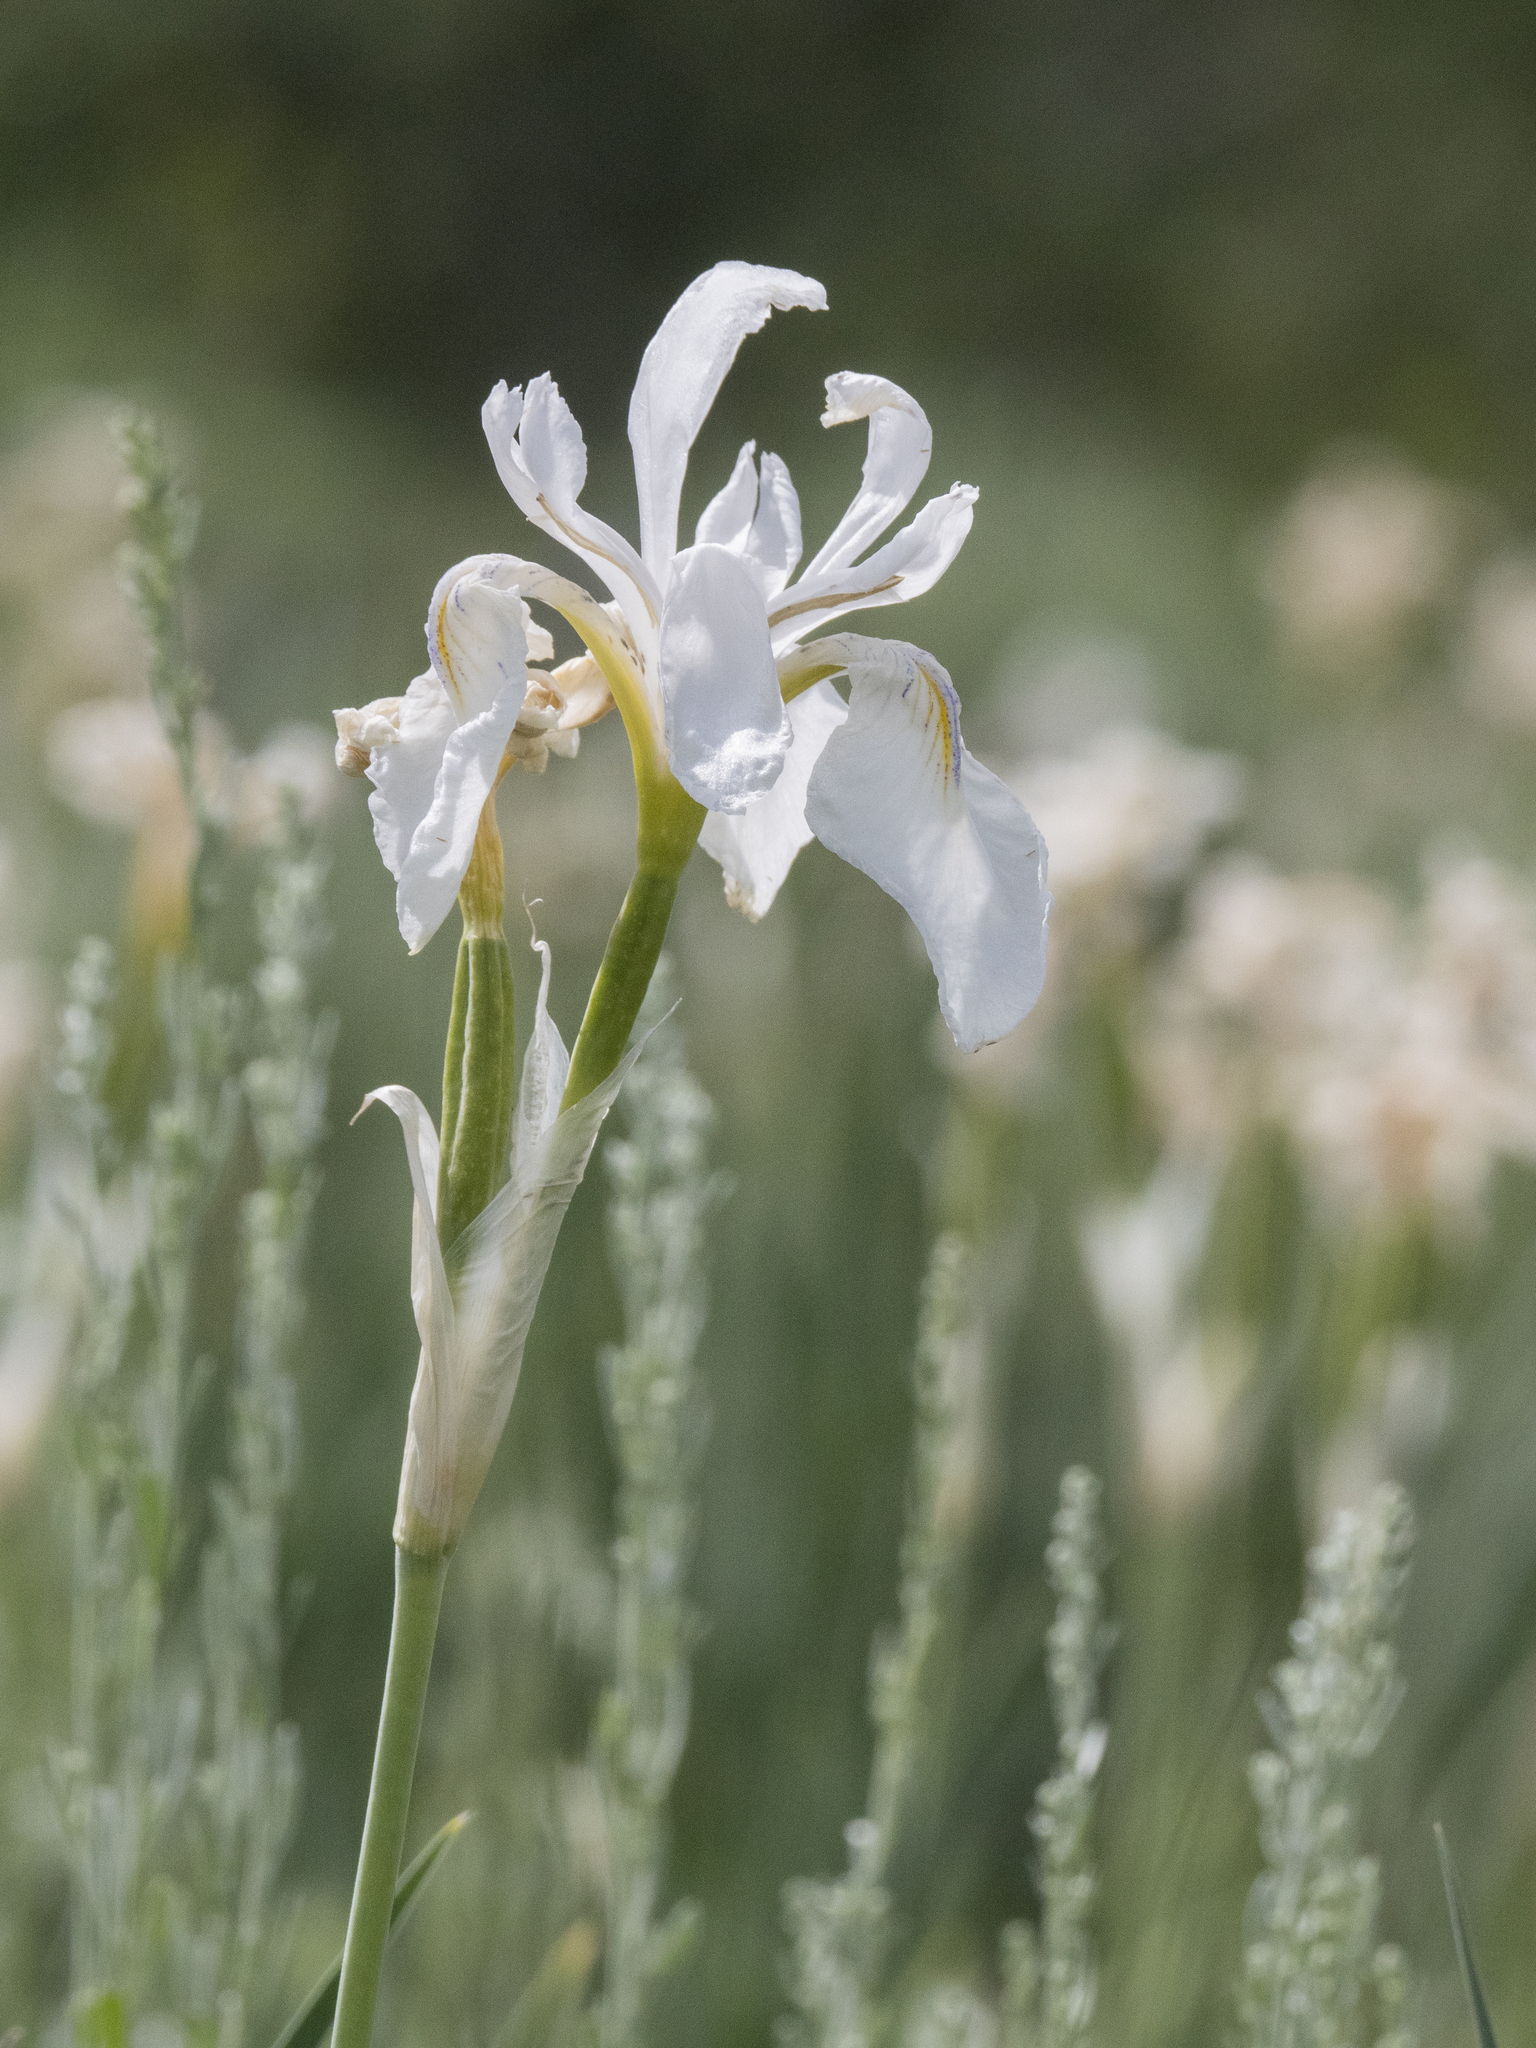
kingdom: Plantae
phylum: Tracheophyta
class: Liliopsida
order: Asparagales
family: Iridaceae
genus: Iris
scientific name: Iris missouriensis
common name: Rocky mountain iris
